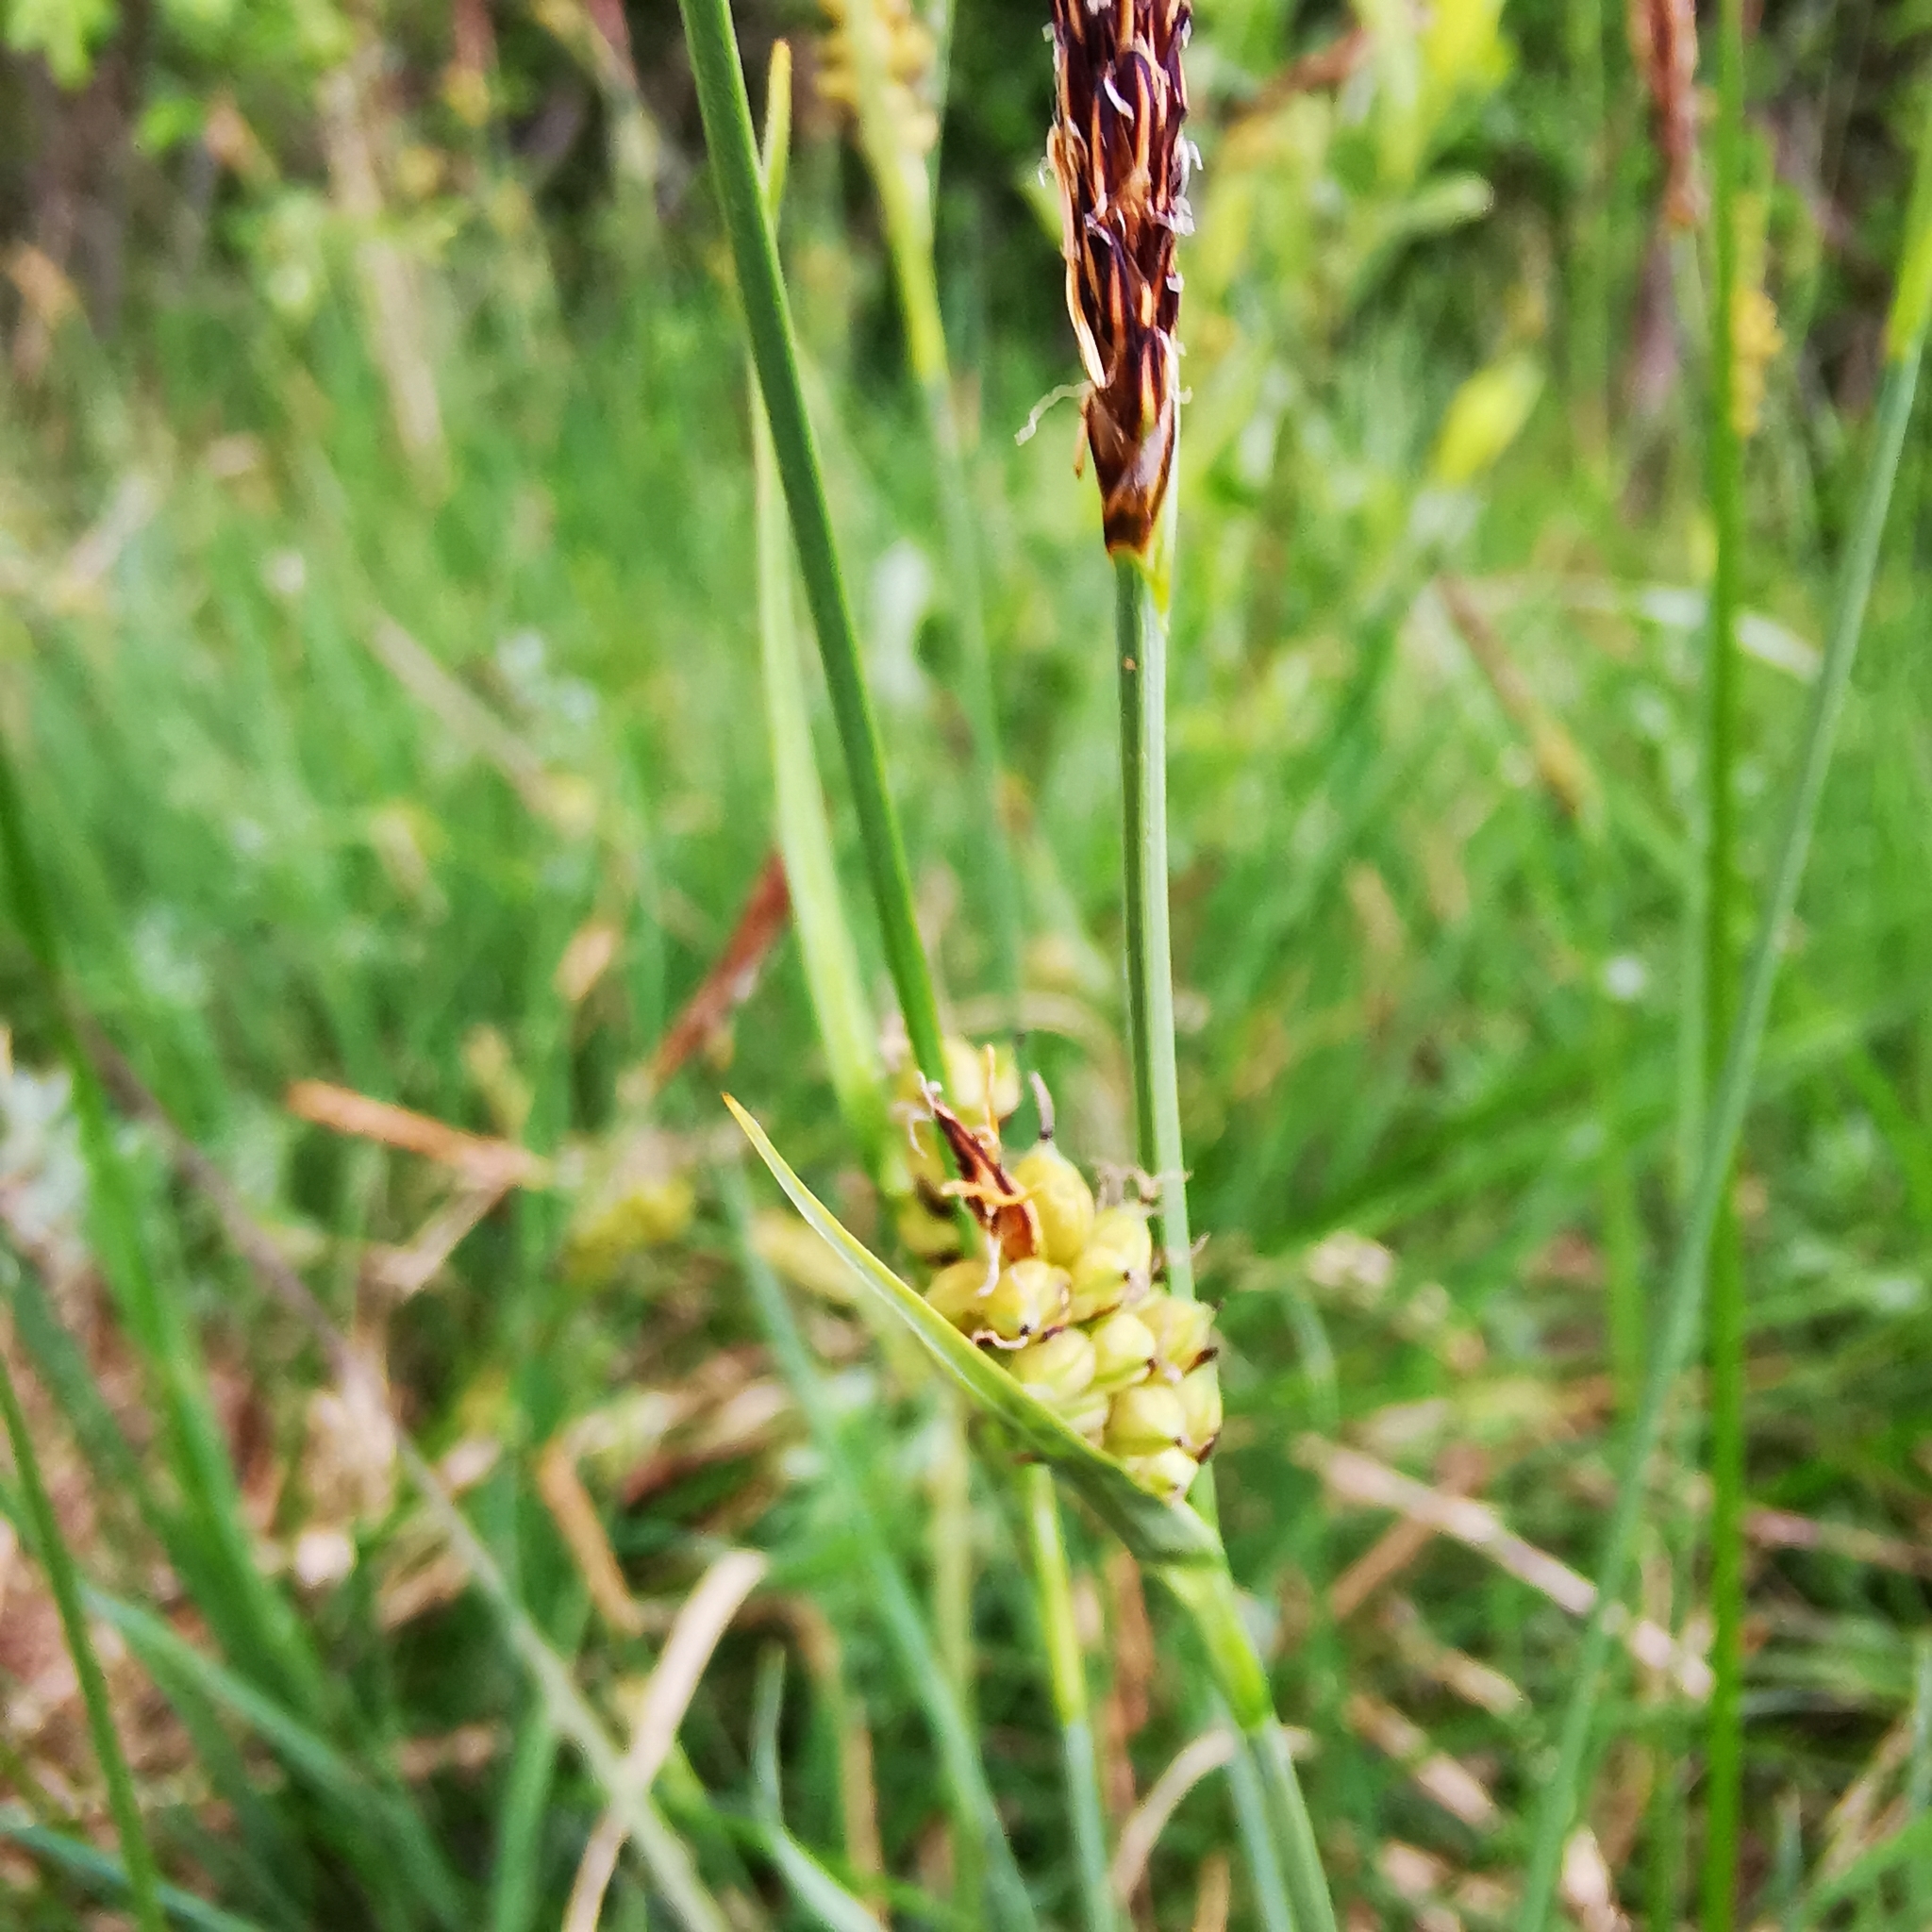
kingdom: Plantae
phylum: Tracheophyta
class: Liliopsida
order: Poales
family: Cyperaceae
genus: Carex
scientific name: Carex panicea
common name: Carnation sedge
